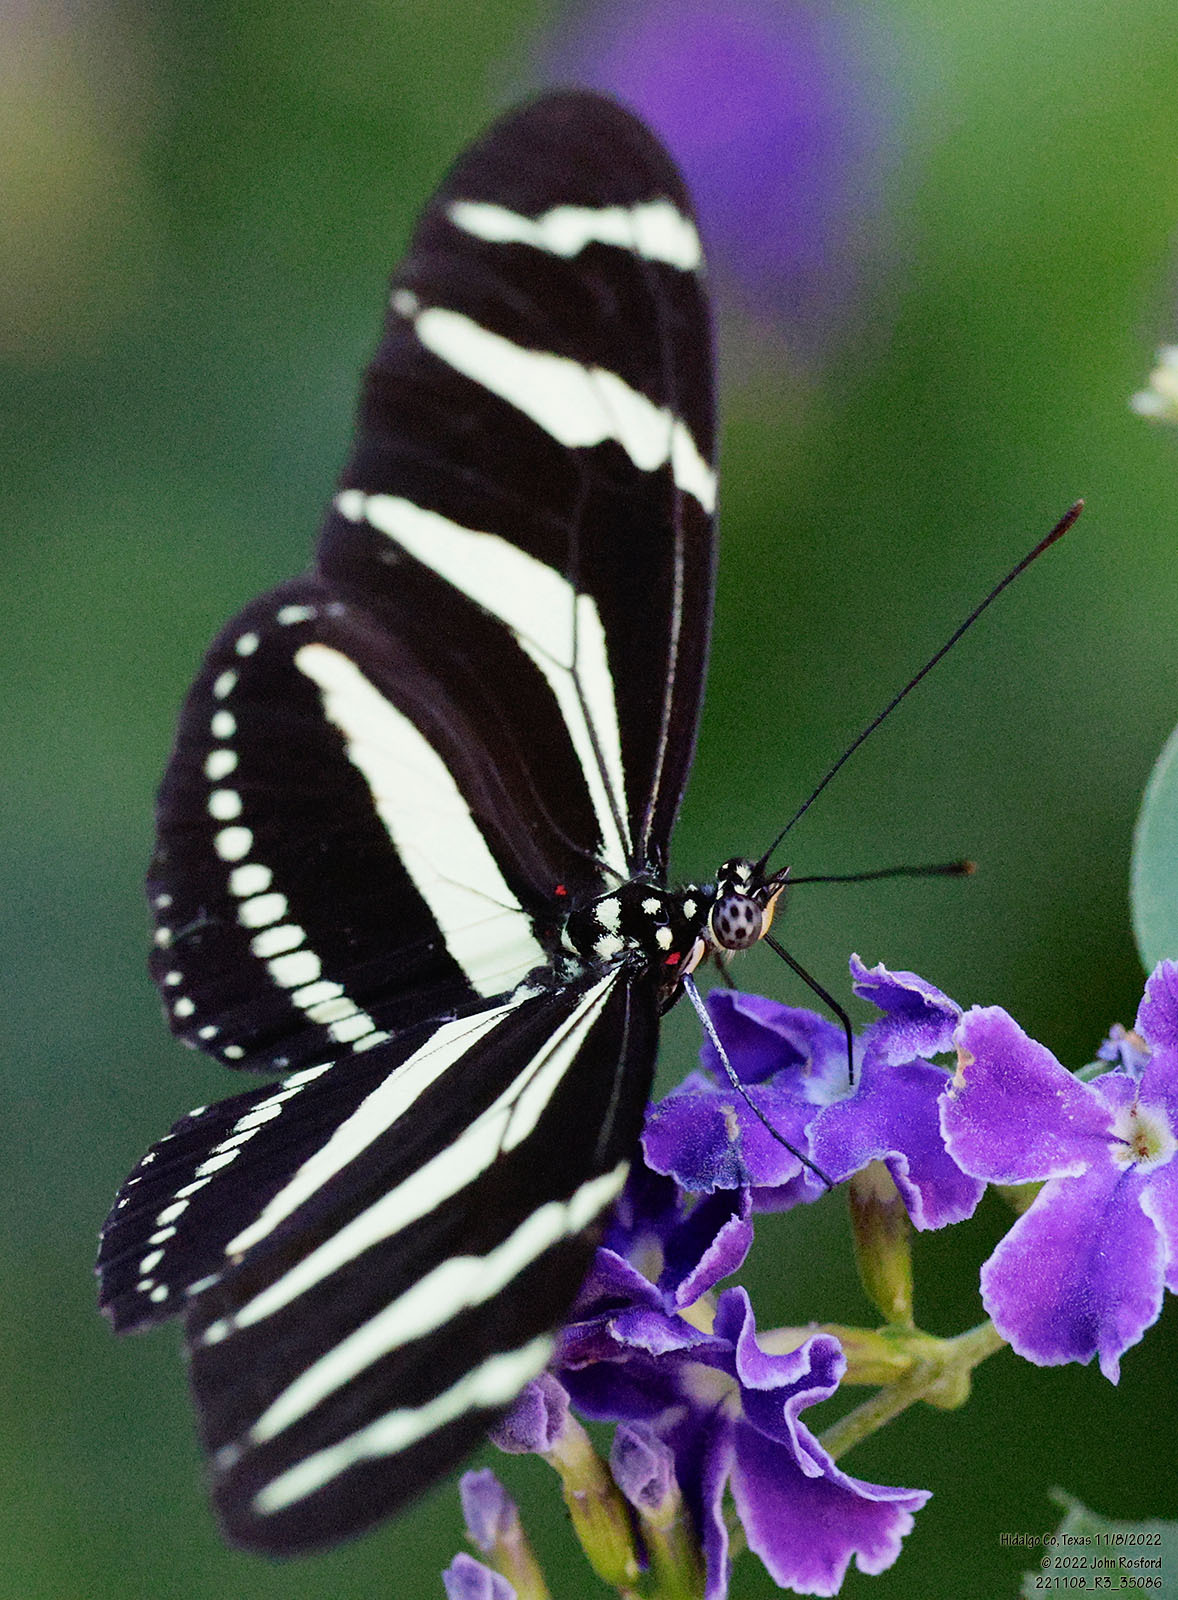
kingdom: Animalia
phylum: Arthropoda
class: Insecta
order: Lepidoptera
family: Nymphalidae
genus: Heliconius
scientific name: Heliconius charithonia
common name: Zebra long wing
